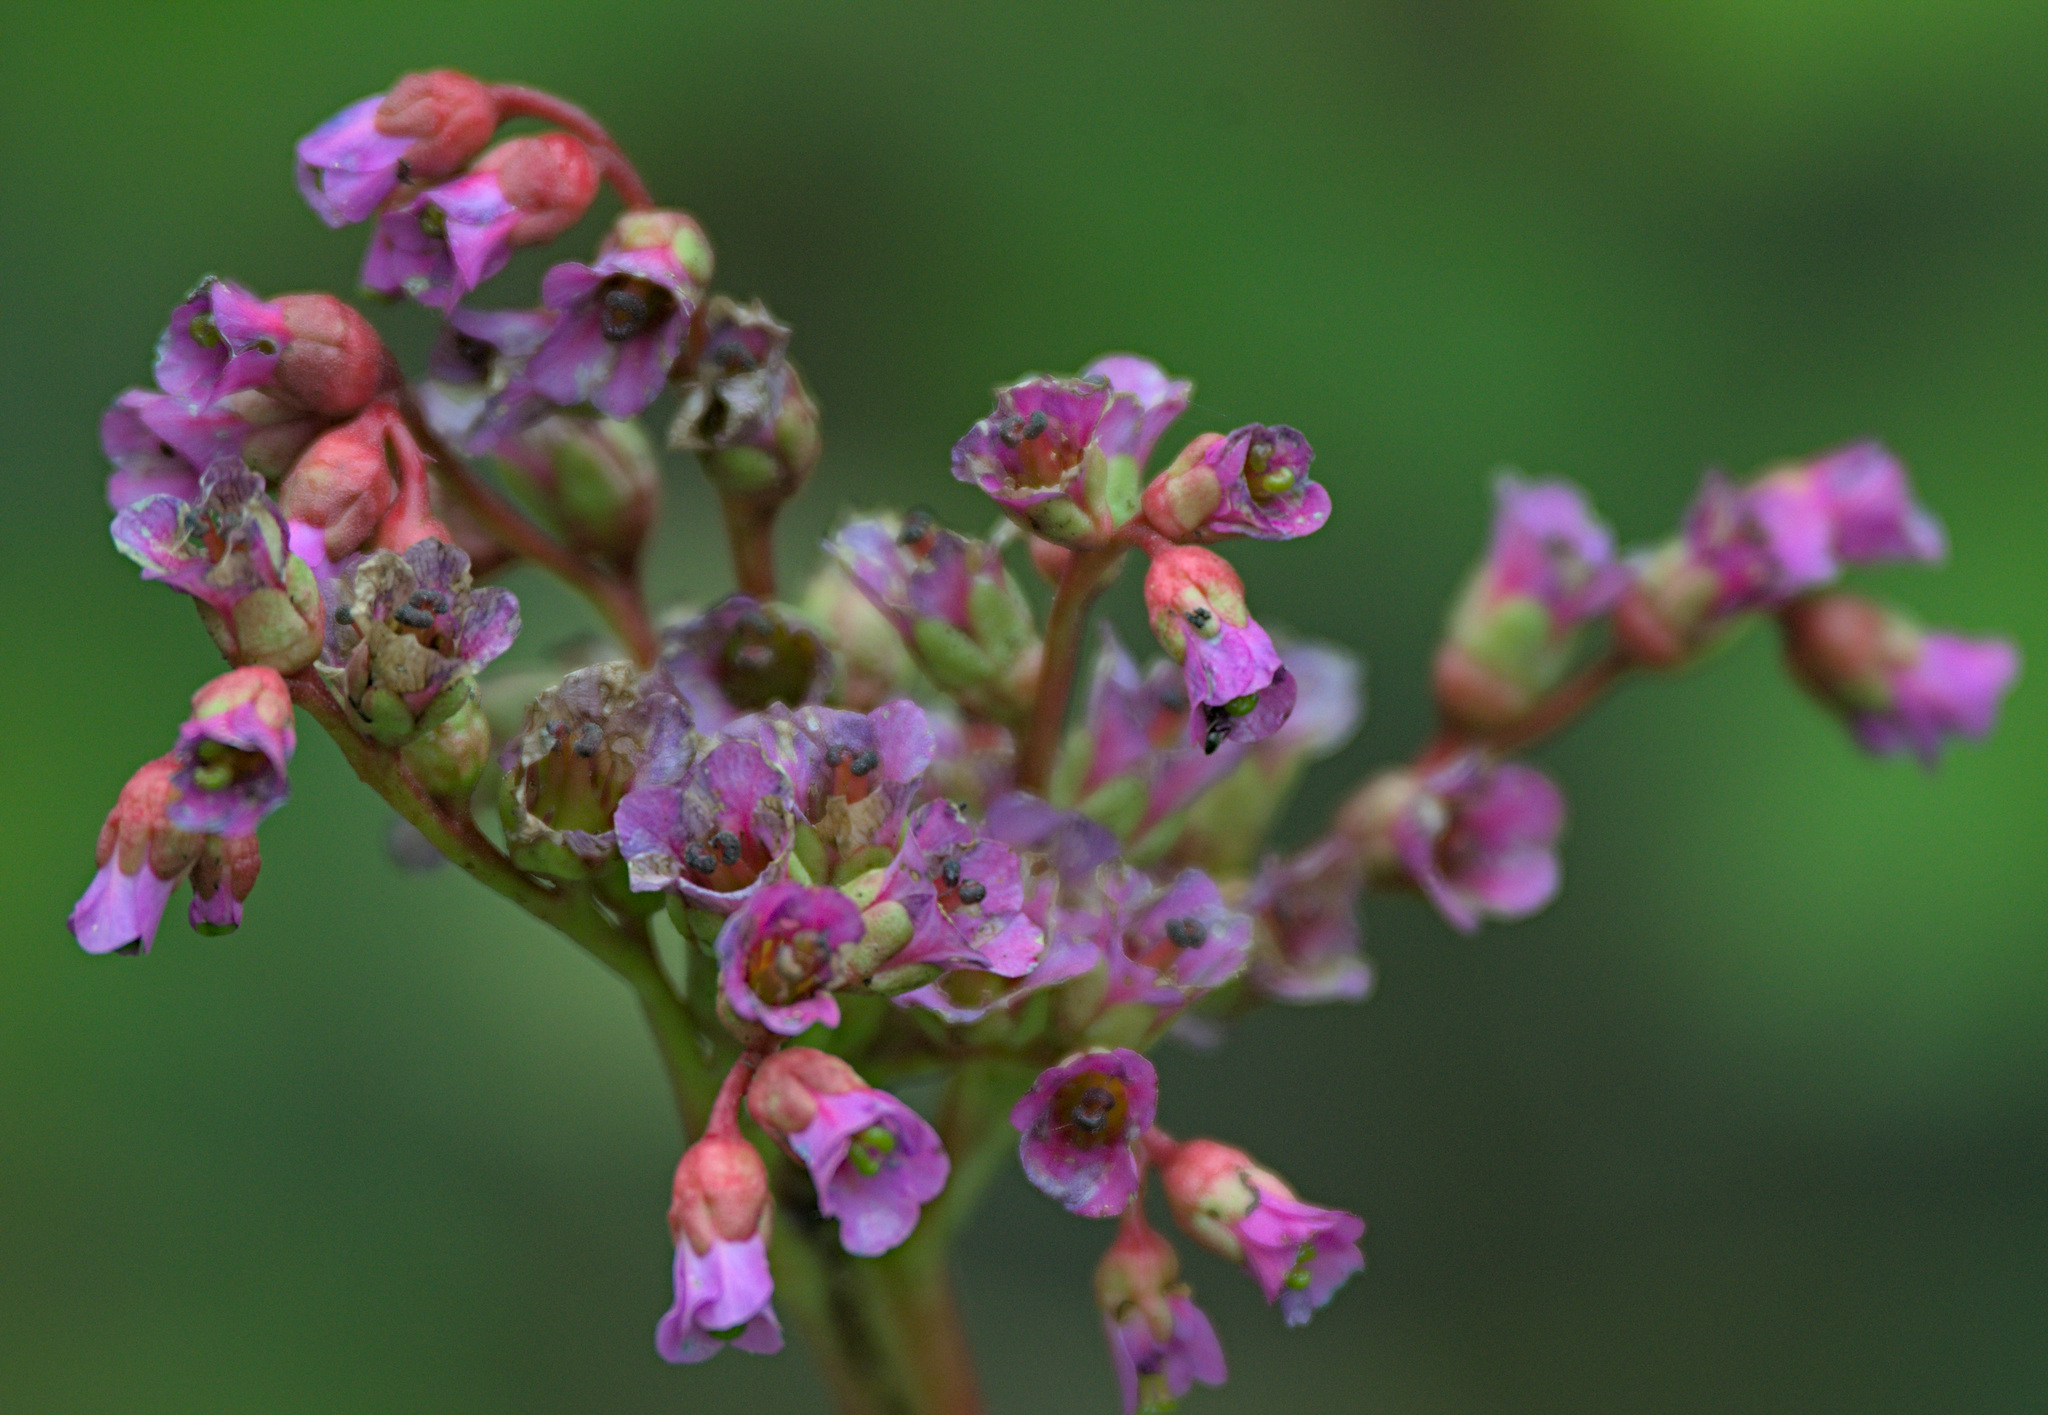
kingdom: Plantae
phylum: Tracheophyta
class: Magnoliopsida
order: Saxifragales
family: Saxifragaceae
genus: Bergenia
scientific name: Bergenia crassifolia
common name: Elephant-ears
